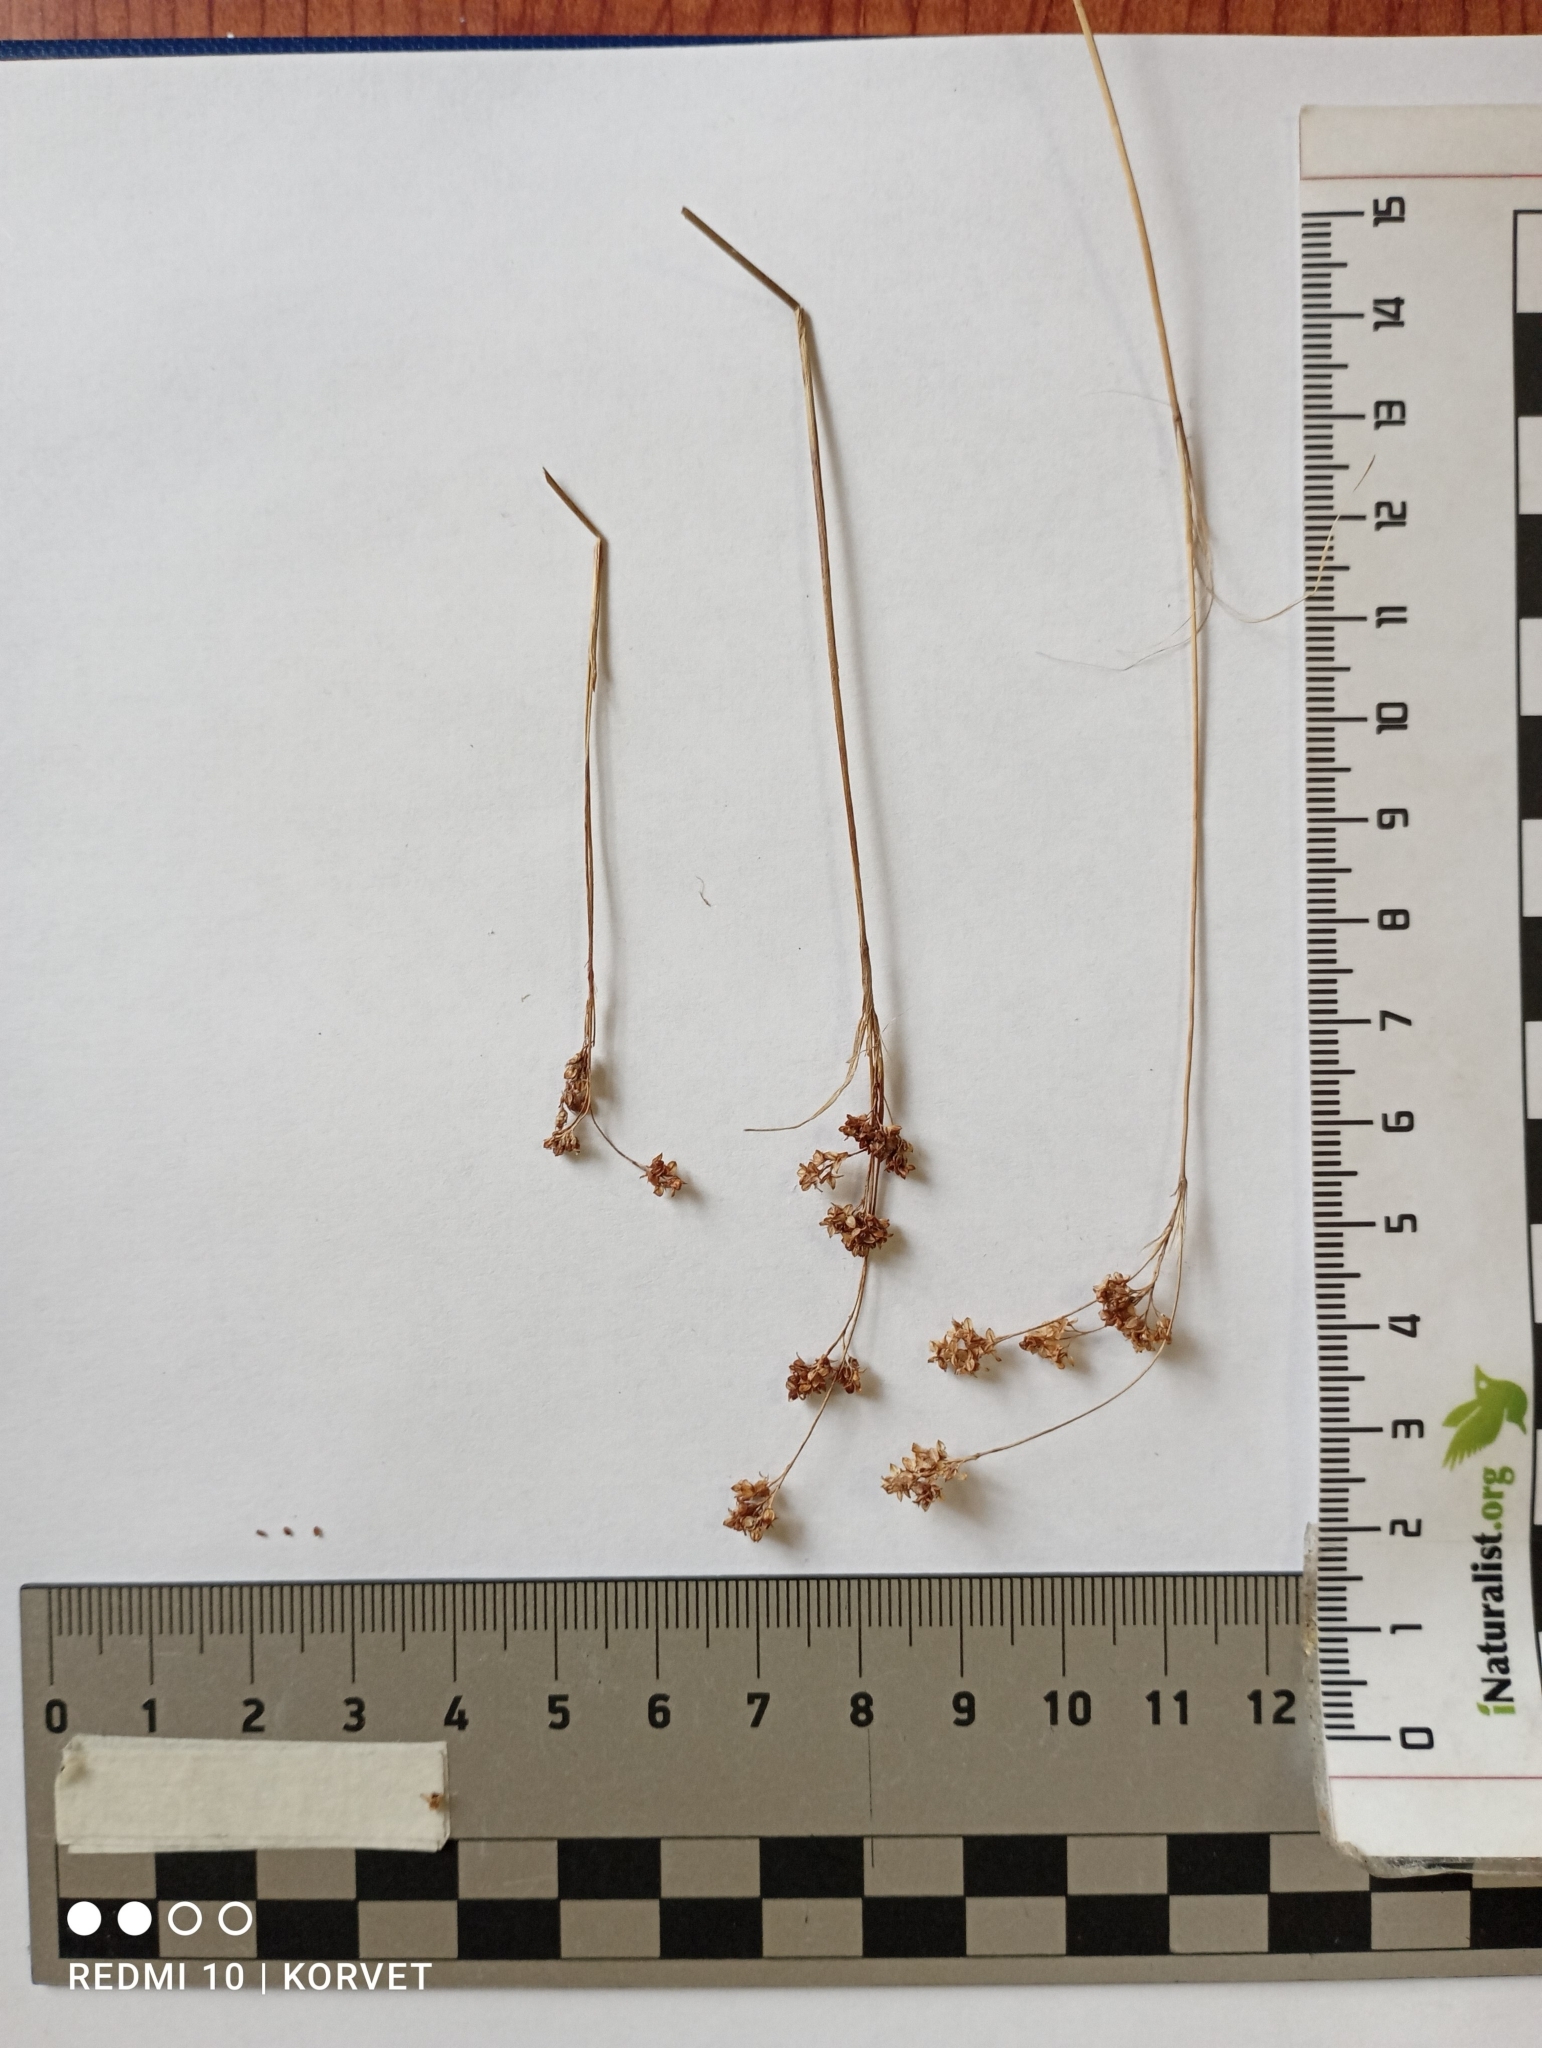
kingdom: Plantae
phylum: Tracheophyta
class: Liliopsida
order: Poales
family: Juncaceae
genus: Luzula
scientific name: Luzula kjellmaniana
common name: Kjellman's woodrush
